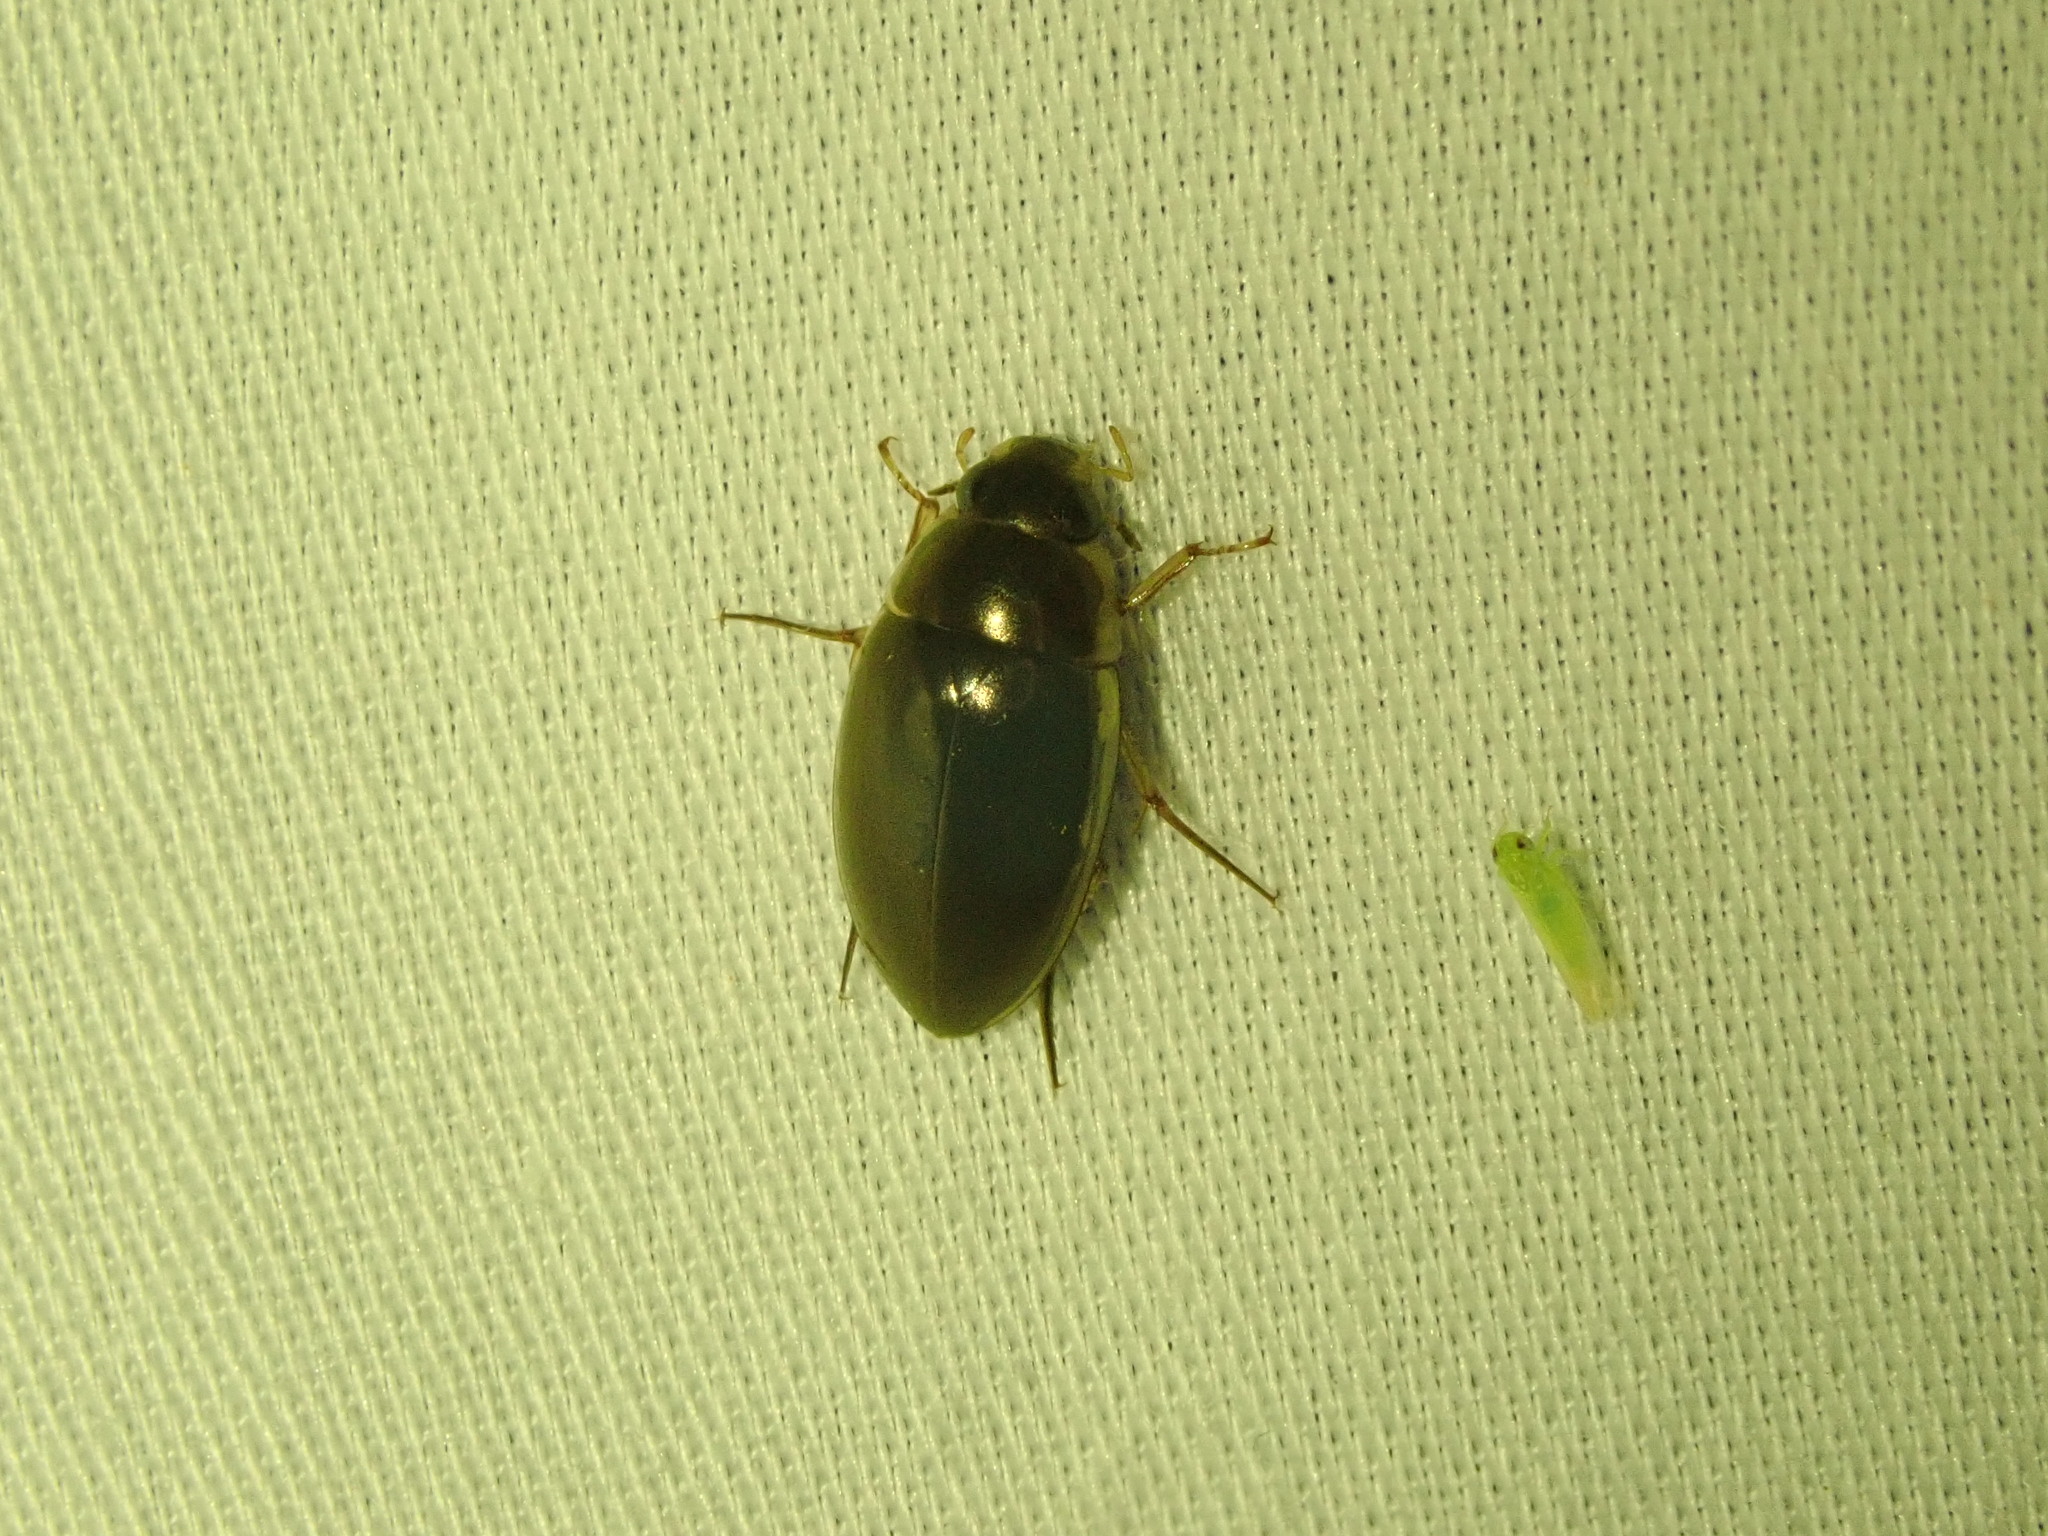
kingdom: Animalia
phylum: Arthropoda
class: Insecta
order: Coleoptera
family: Hydrophilidae
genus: Tropisternus
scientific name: Tropisternus lateralis
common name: Lateral-banded water scavenger beetle
